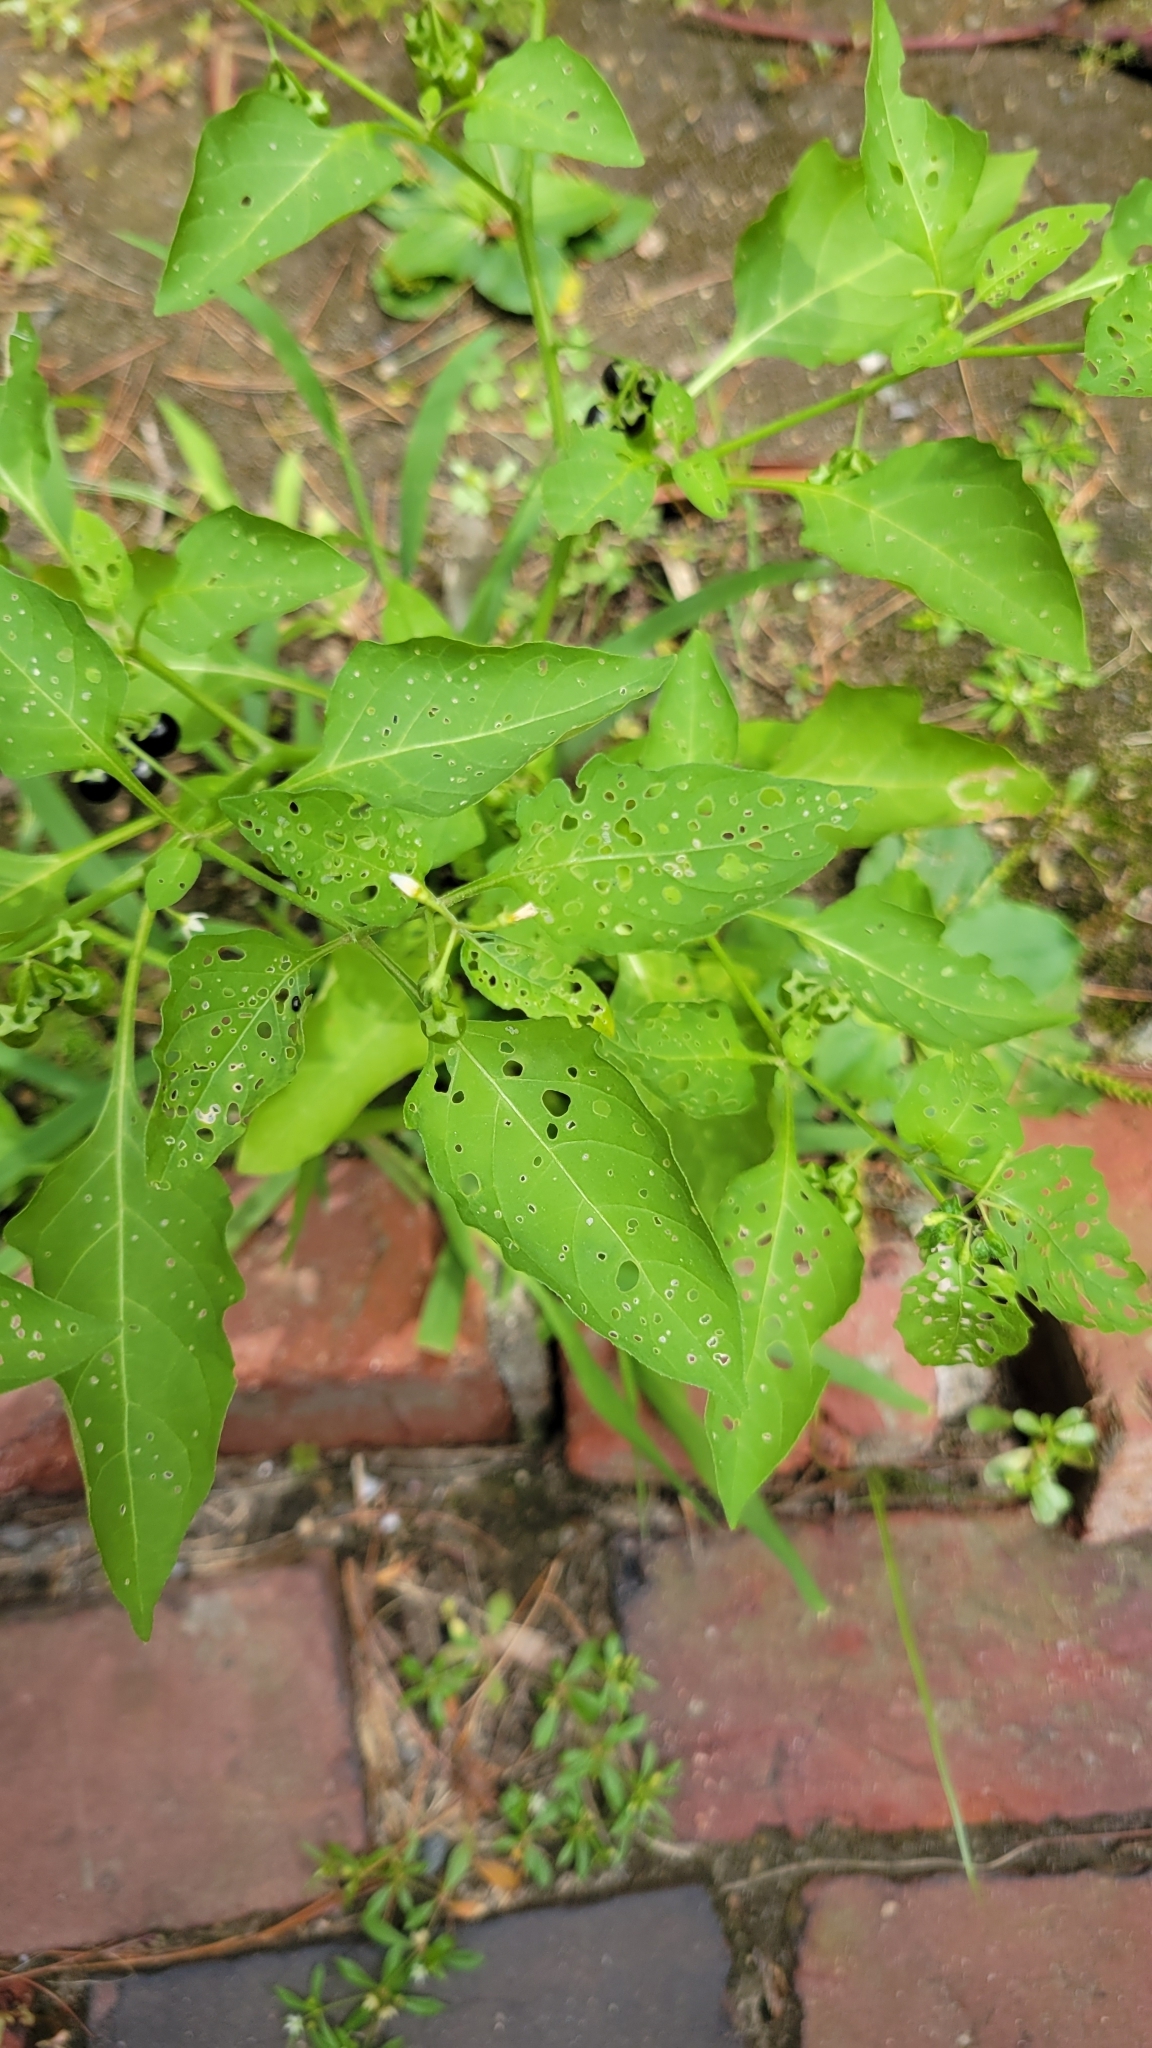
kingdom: Plantae
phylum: Tracheophyta
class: Magnoliopsida
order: Solanales
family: Solanaceae
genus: Solanum
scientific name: Solanum emulans
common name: Eastern black nightshade
